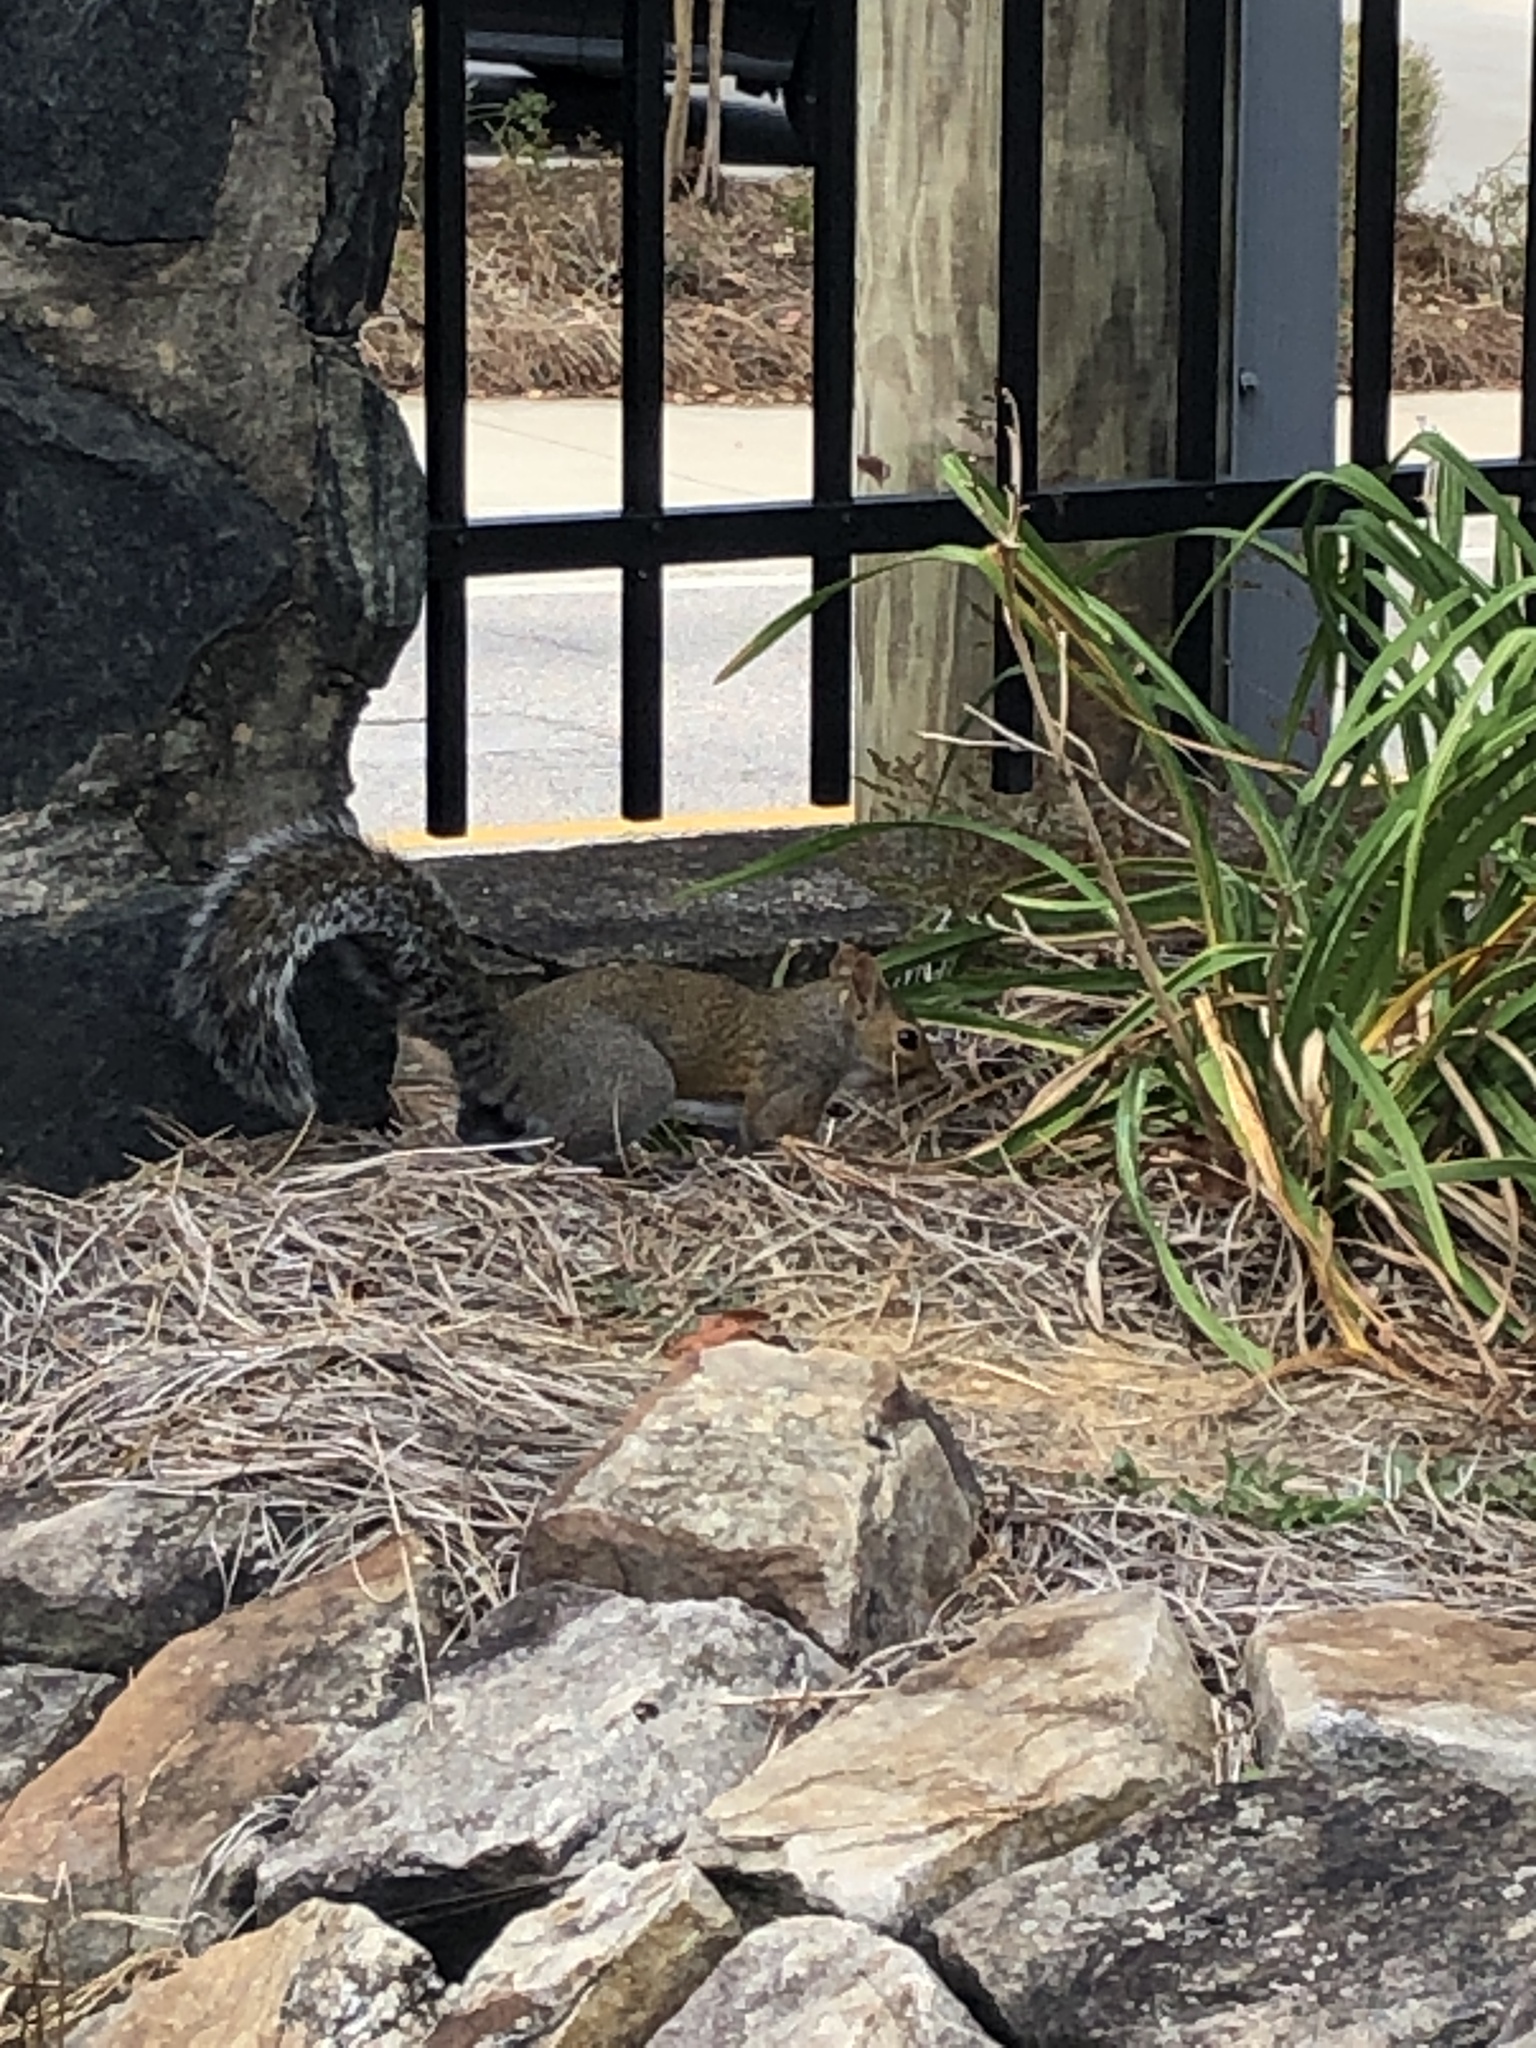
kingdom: Animalia
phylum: Chordata
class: Mammalia
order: Rodentia
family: Sciuridae
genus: Sciurus
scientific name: Sciurus carolinensis
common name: Eastern gray squirrel
